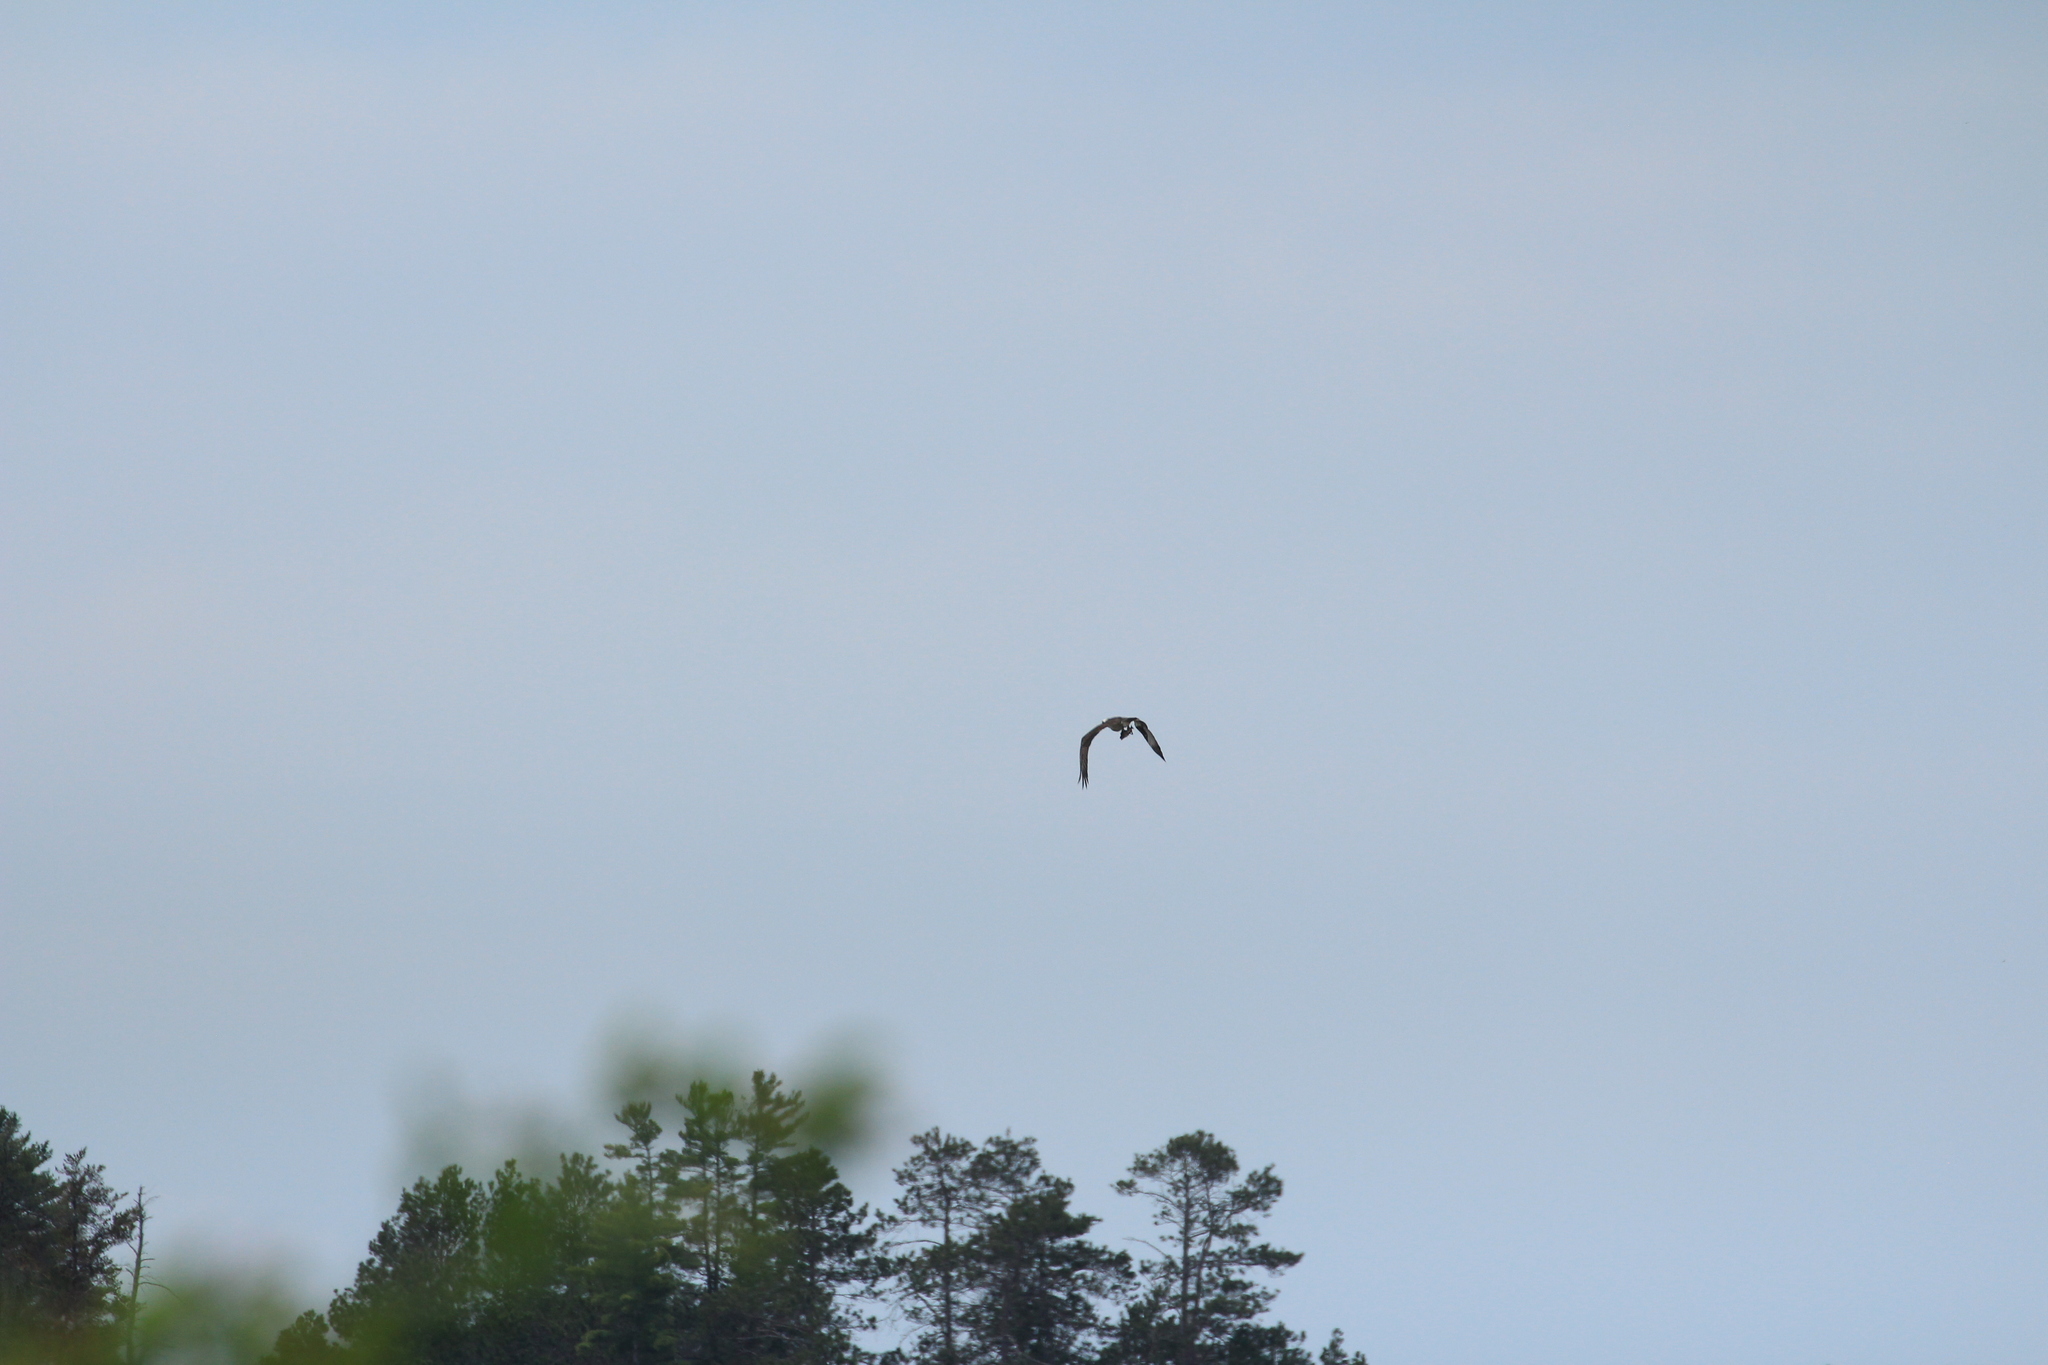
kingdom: Animalia
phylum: Chordata
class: Aves
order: Accipitriformes
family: Pandionidae
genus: Pandion
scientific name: Pandion haliaetus
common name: Osprey
